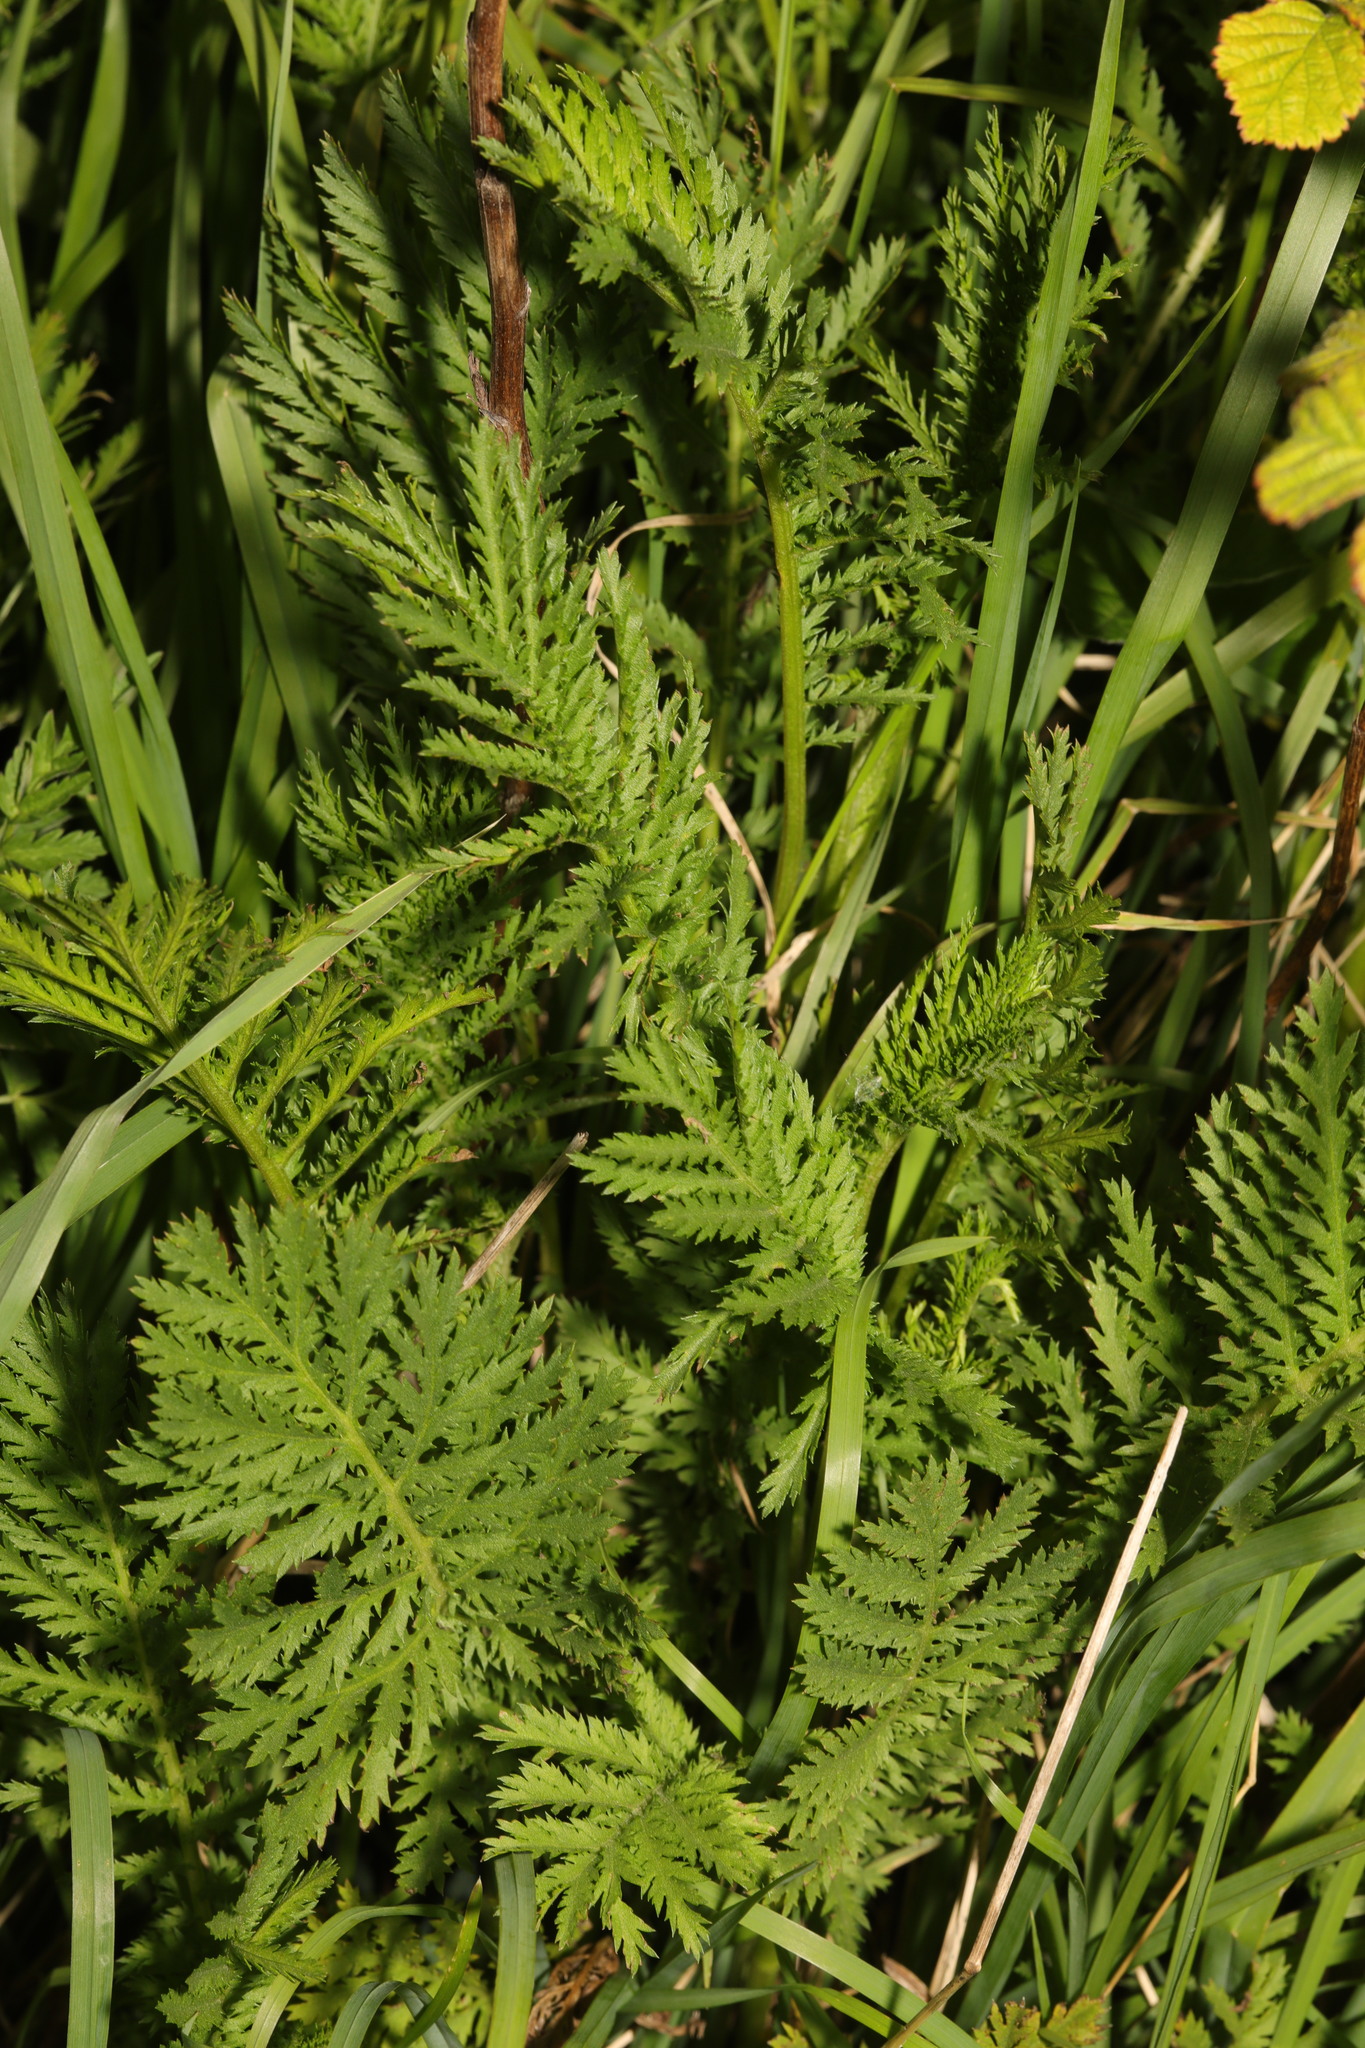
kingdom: Plantae
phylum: Tracheophyta
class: Magnoliopsida
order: Asterales
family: Asteraceae
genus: Tanacetum
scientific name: Tanacetum vulgare
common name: Common tansy
